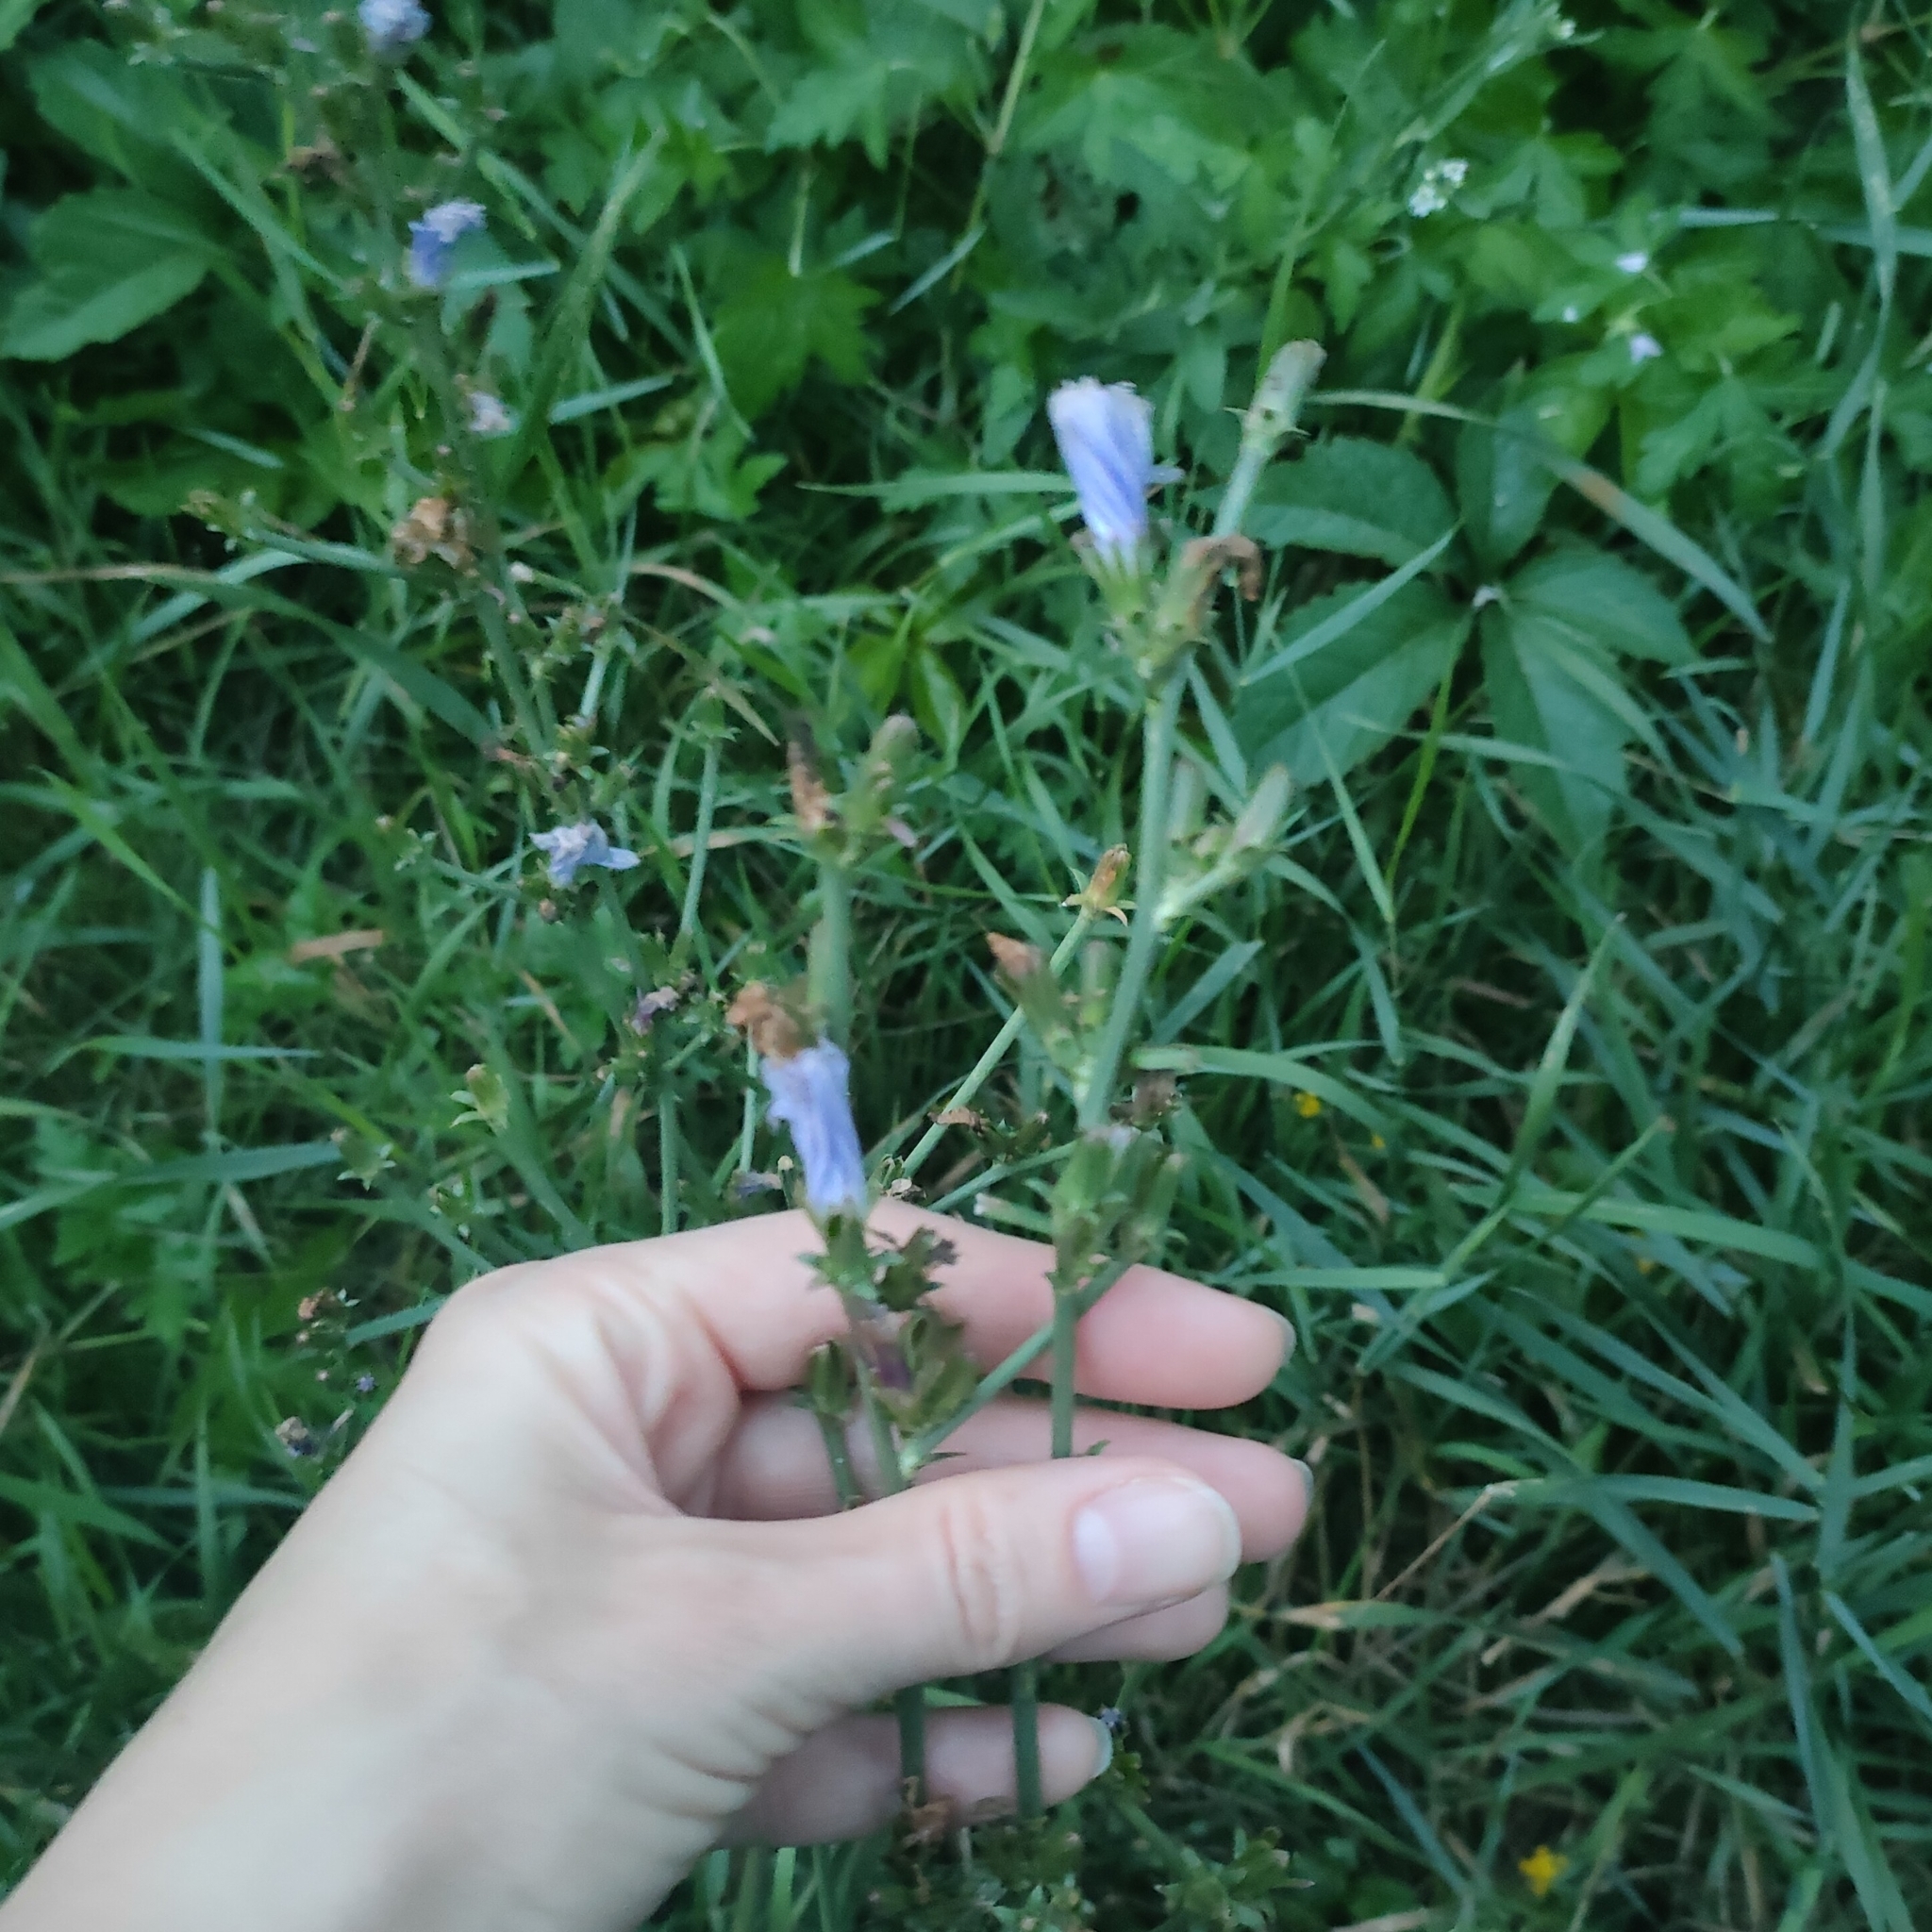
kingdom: Plantae
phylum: Tracheophyta
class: Magnoliopsida
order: Asterales
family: Asteraceae
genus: Cichorium
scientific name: Cichorium intybus
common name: Chicory
